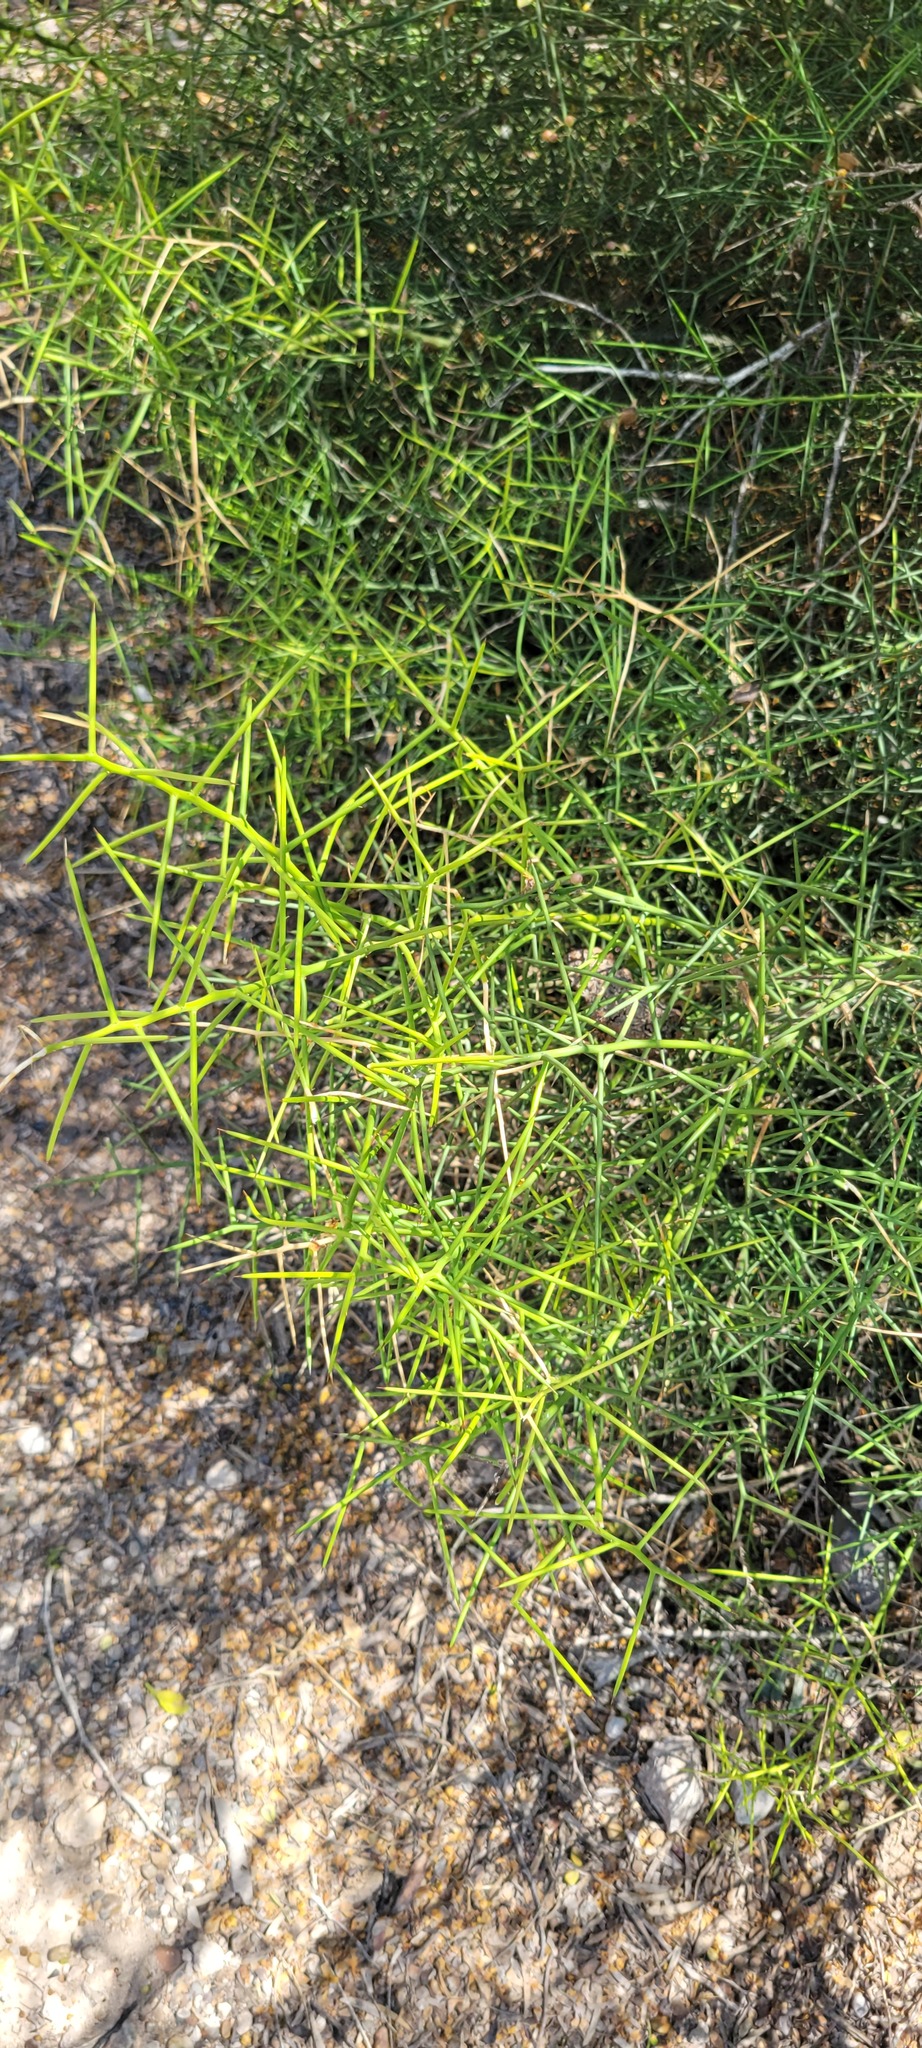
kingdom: Plantae
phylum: Tracheophyta
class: Magnoliopsida
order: Brassicales
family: Koeberliniaceae
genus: Koeberlinia
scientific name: Koeberlinia spinosa
